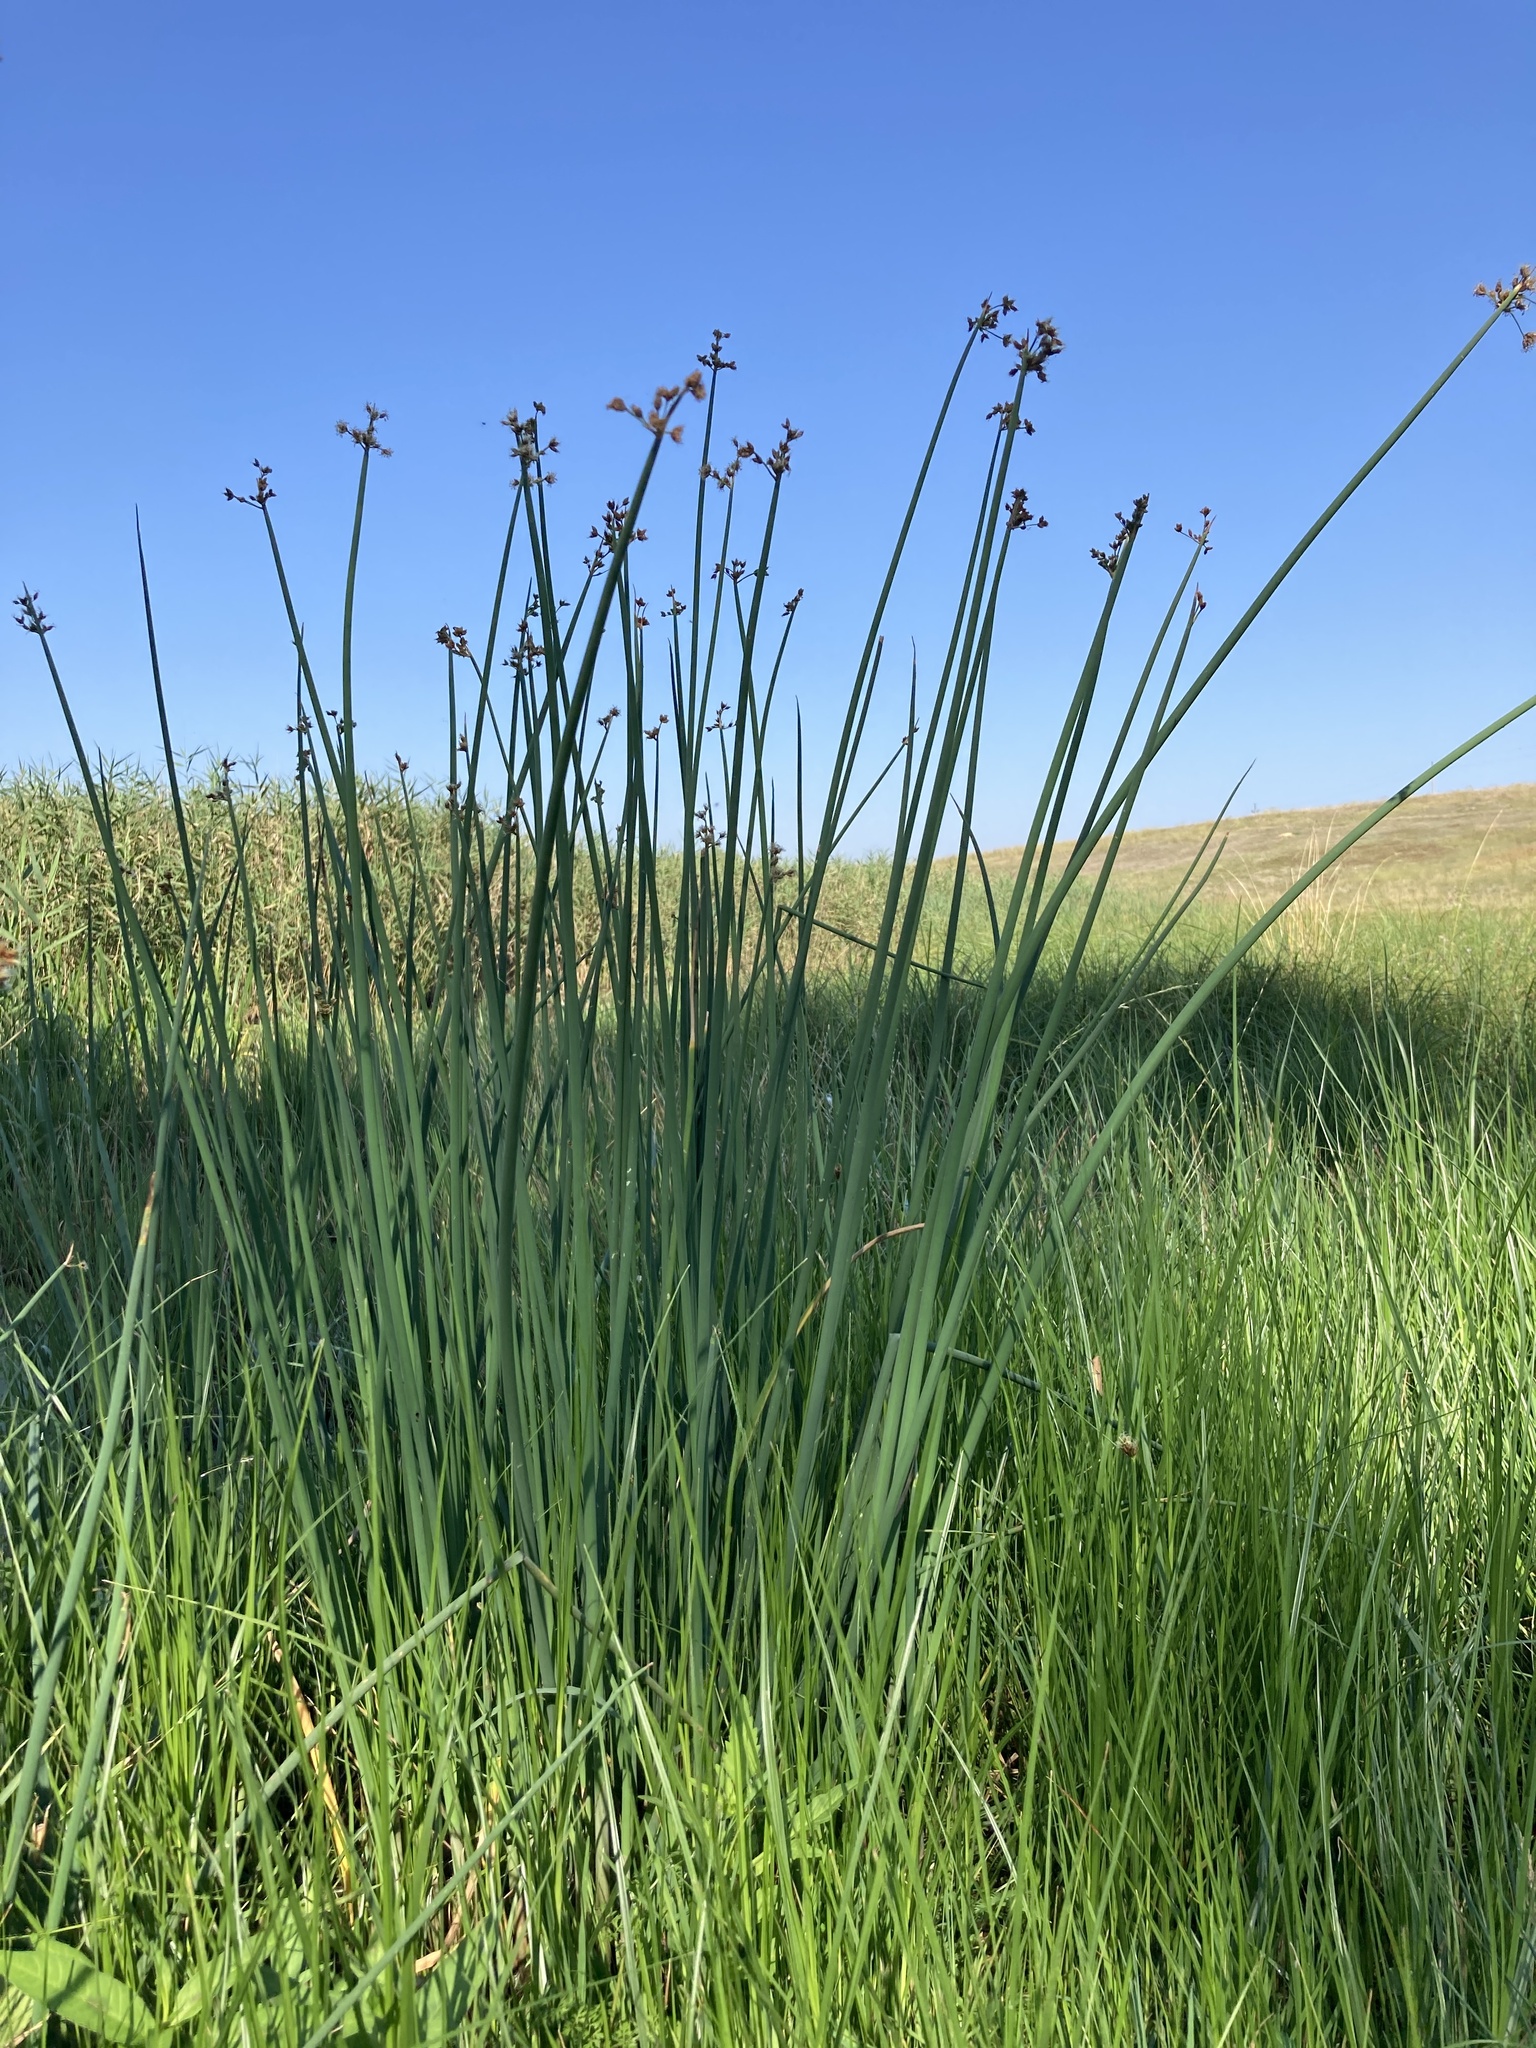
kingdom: Plantae
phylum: Tracheophyta
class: Liliopsida
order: Poales
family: Cyperaceae
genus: Schoenoplectus
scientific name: Schoenoplectus lacustris
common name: Common club-rush
